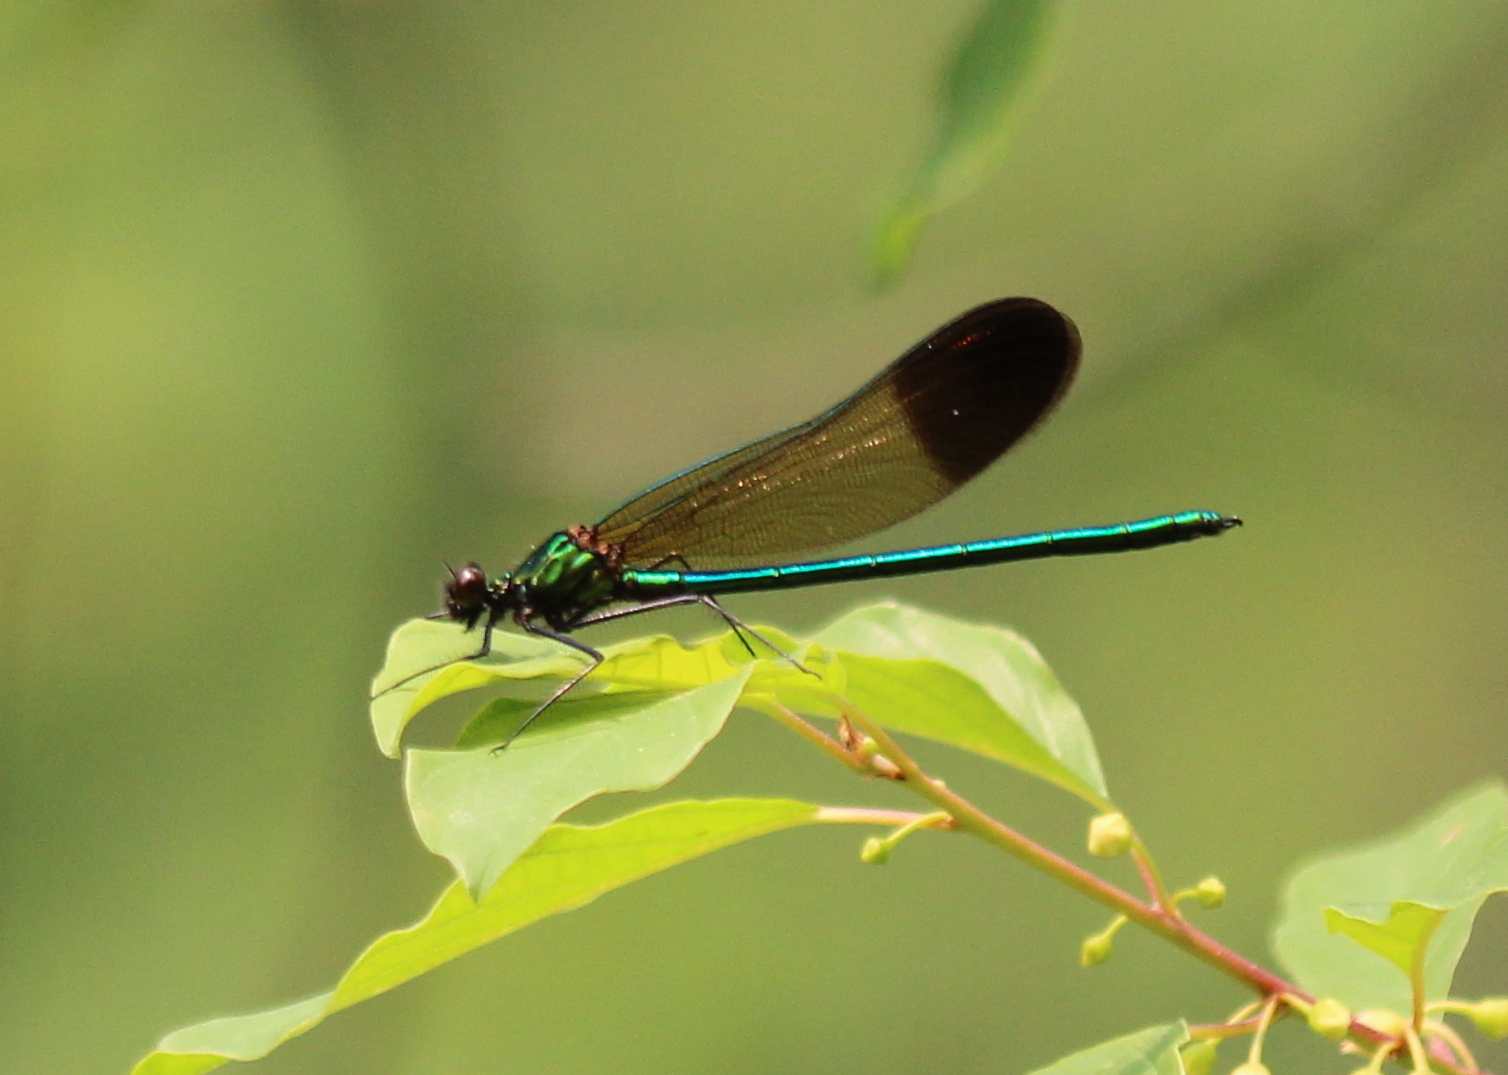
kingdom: Animalia
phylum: Arthropoda
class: Insecta
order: Odonata
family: Calopterygidae
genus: Calopteryx
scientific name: Calopteryx aequabilis
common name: River jewelwing
